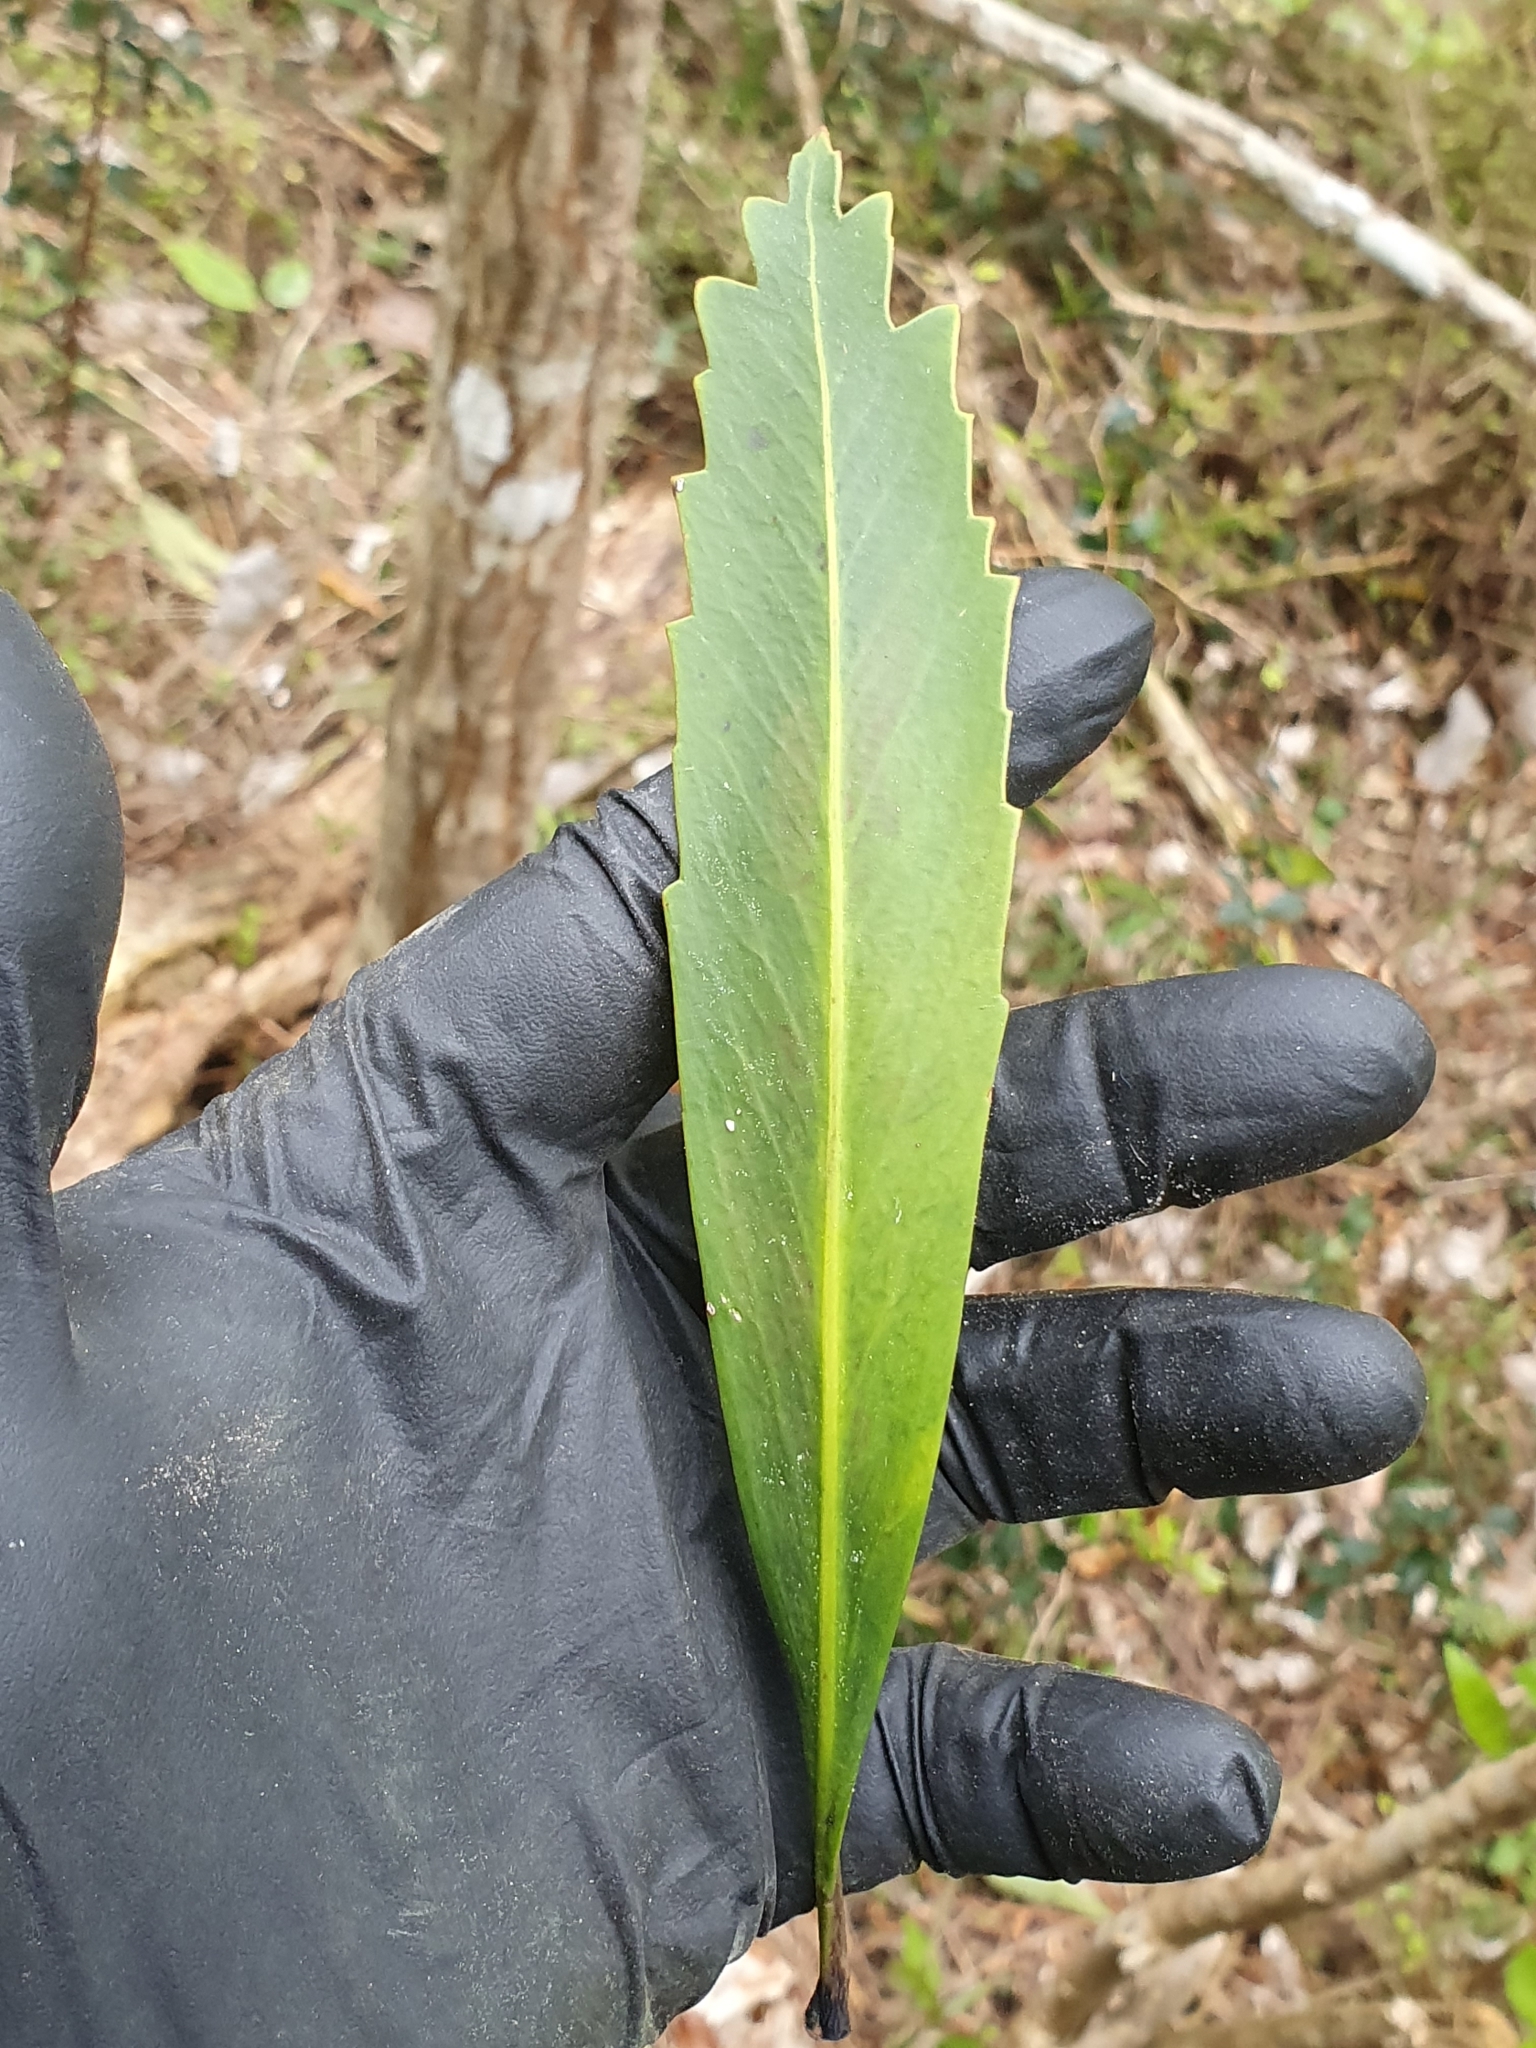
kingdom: Plantae
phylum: Tracheophyta
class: Magnoliopsida
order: Apiales
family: Araliaceae
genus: Pseudopanax
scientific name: Pseudopanax crassifolius
